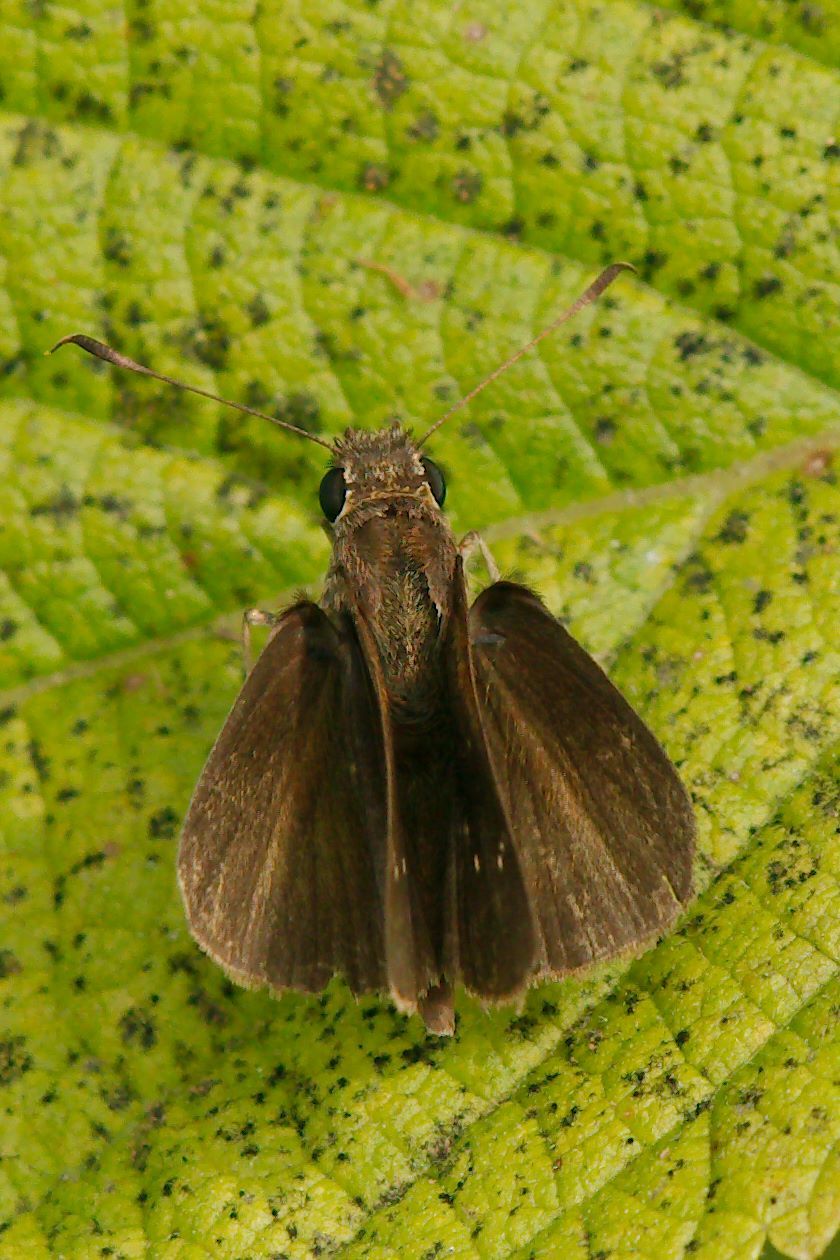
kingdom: Animalia
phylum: Arthropoda
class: Insecta
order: Lepidoptera
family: Hesperiidae
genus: Cymaenes
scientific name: Cymaenes tripunctus
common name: Dingy dotted skipper
